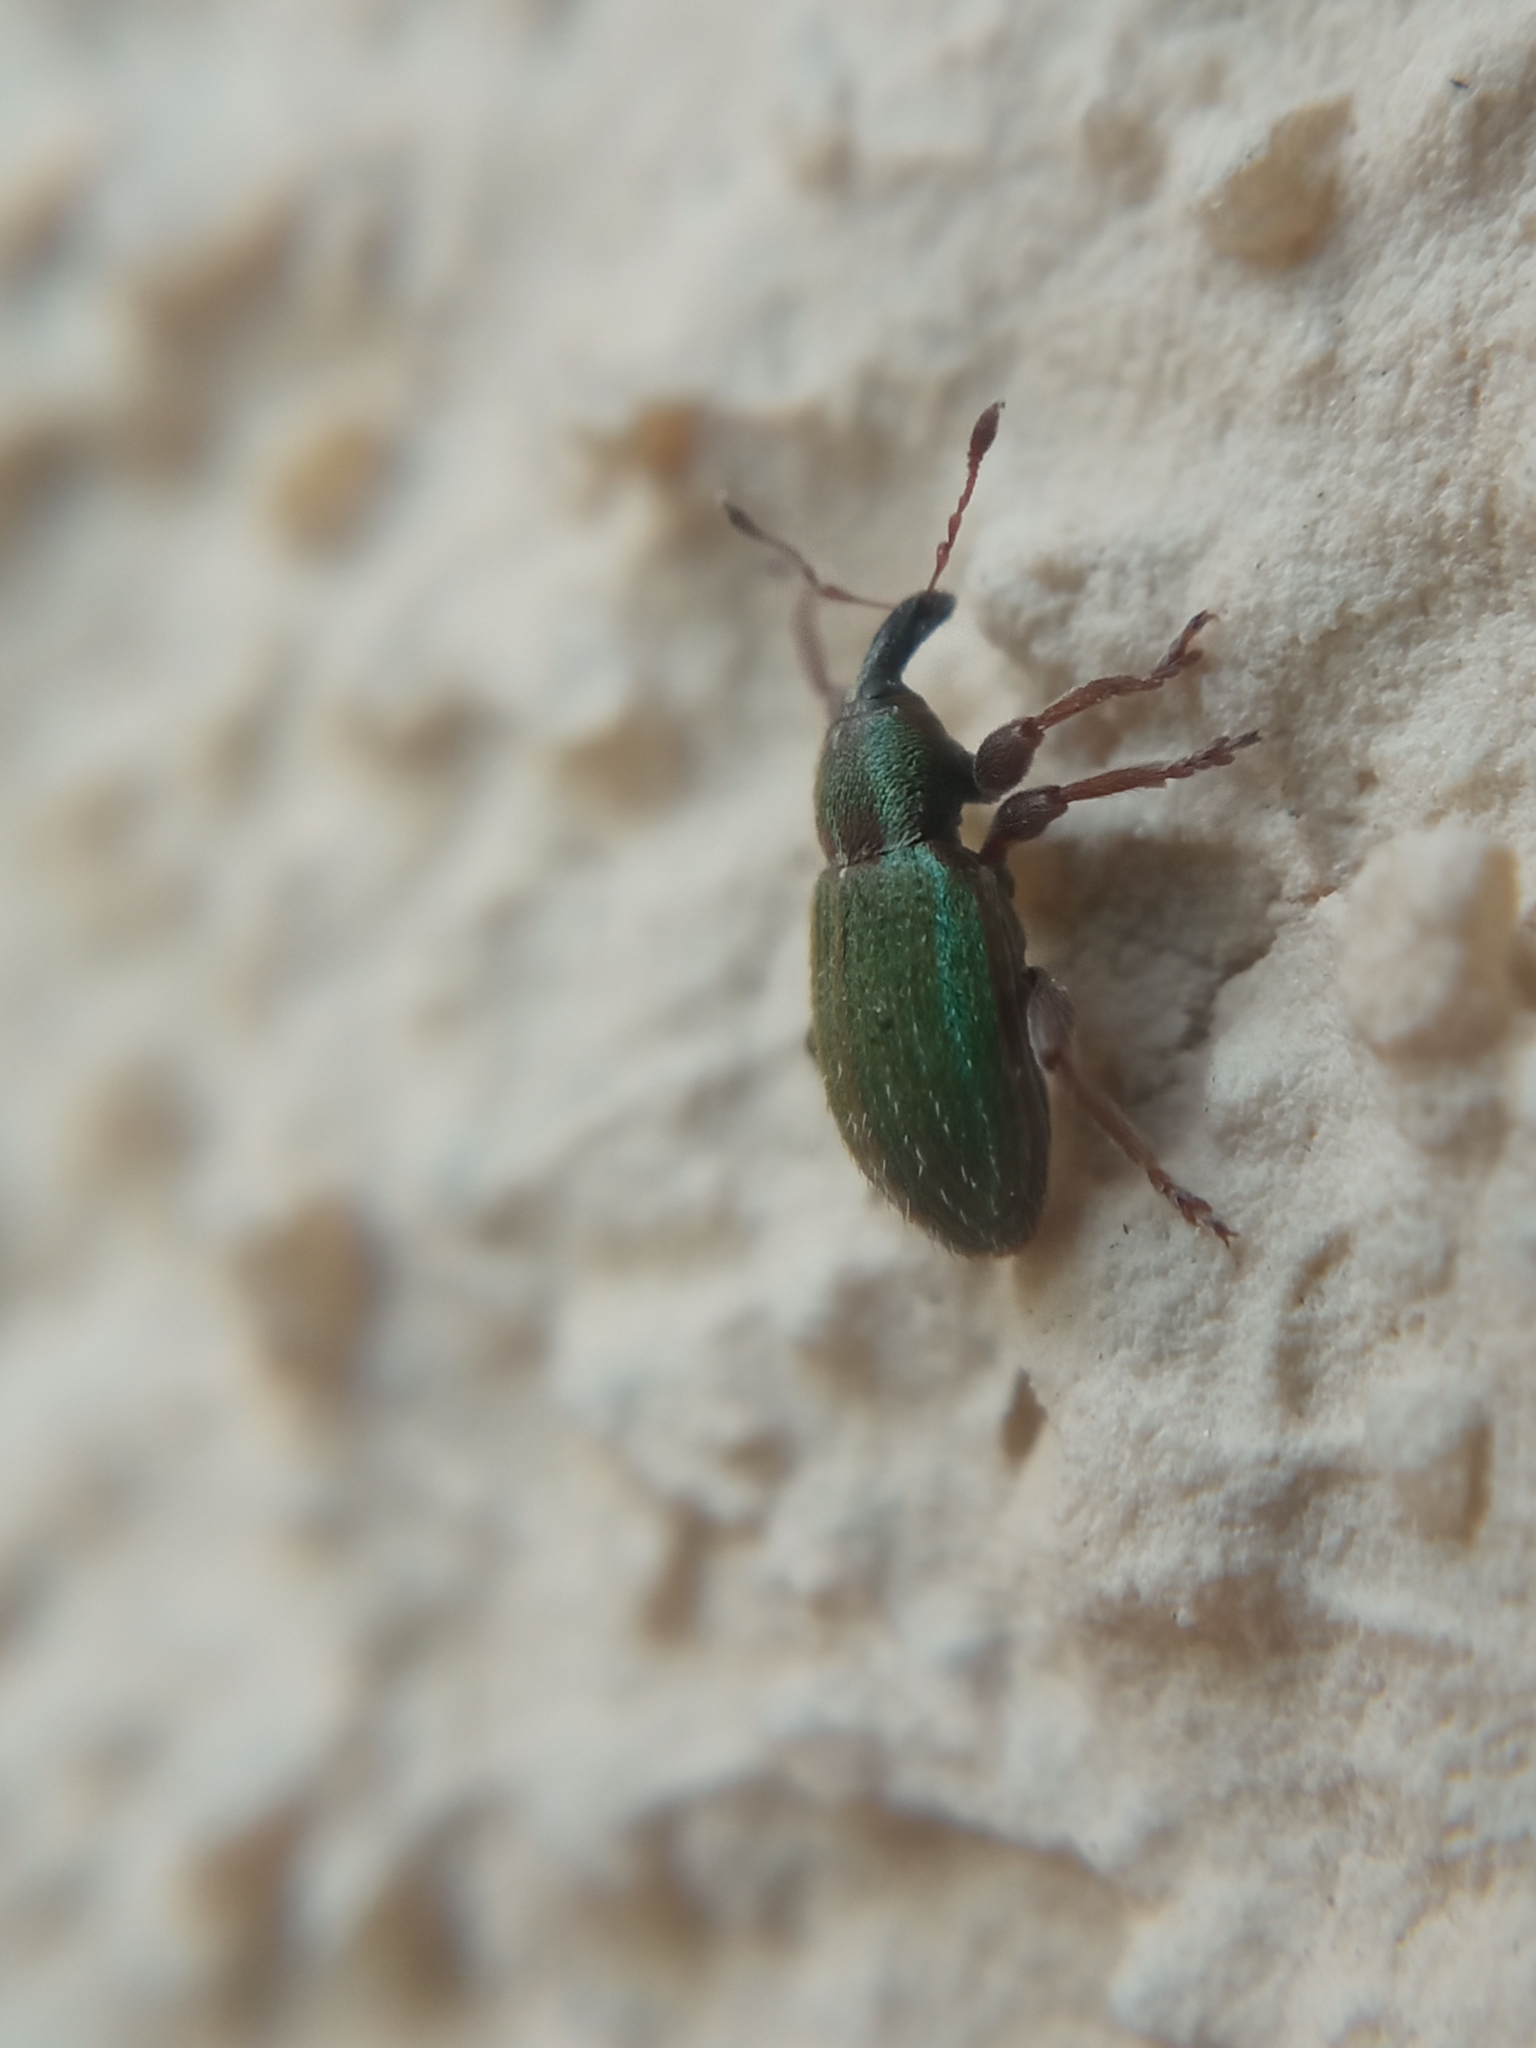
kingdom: Animalia
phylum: Arthropoda
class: Insecta
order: Coleoptera
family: Curculionidae
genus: Hypera
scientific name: Hypera nigrirostris
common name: Black-beaked green weevil
